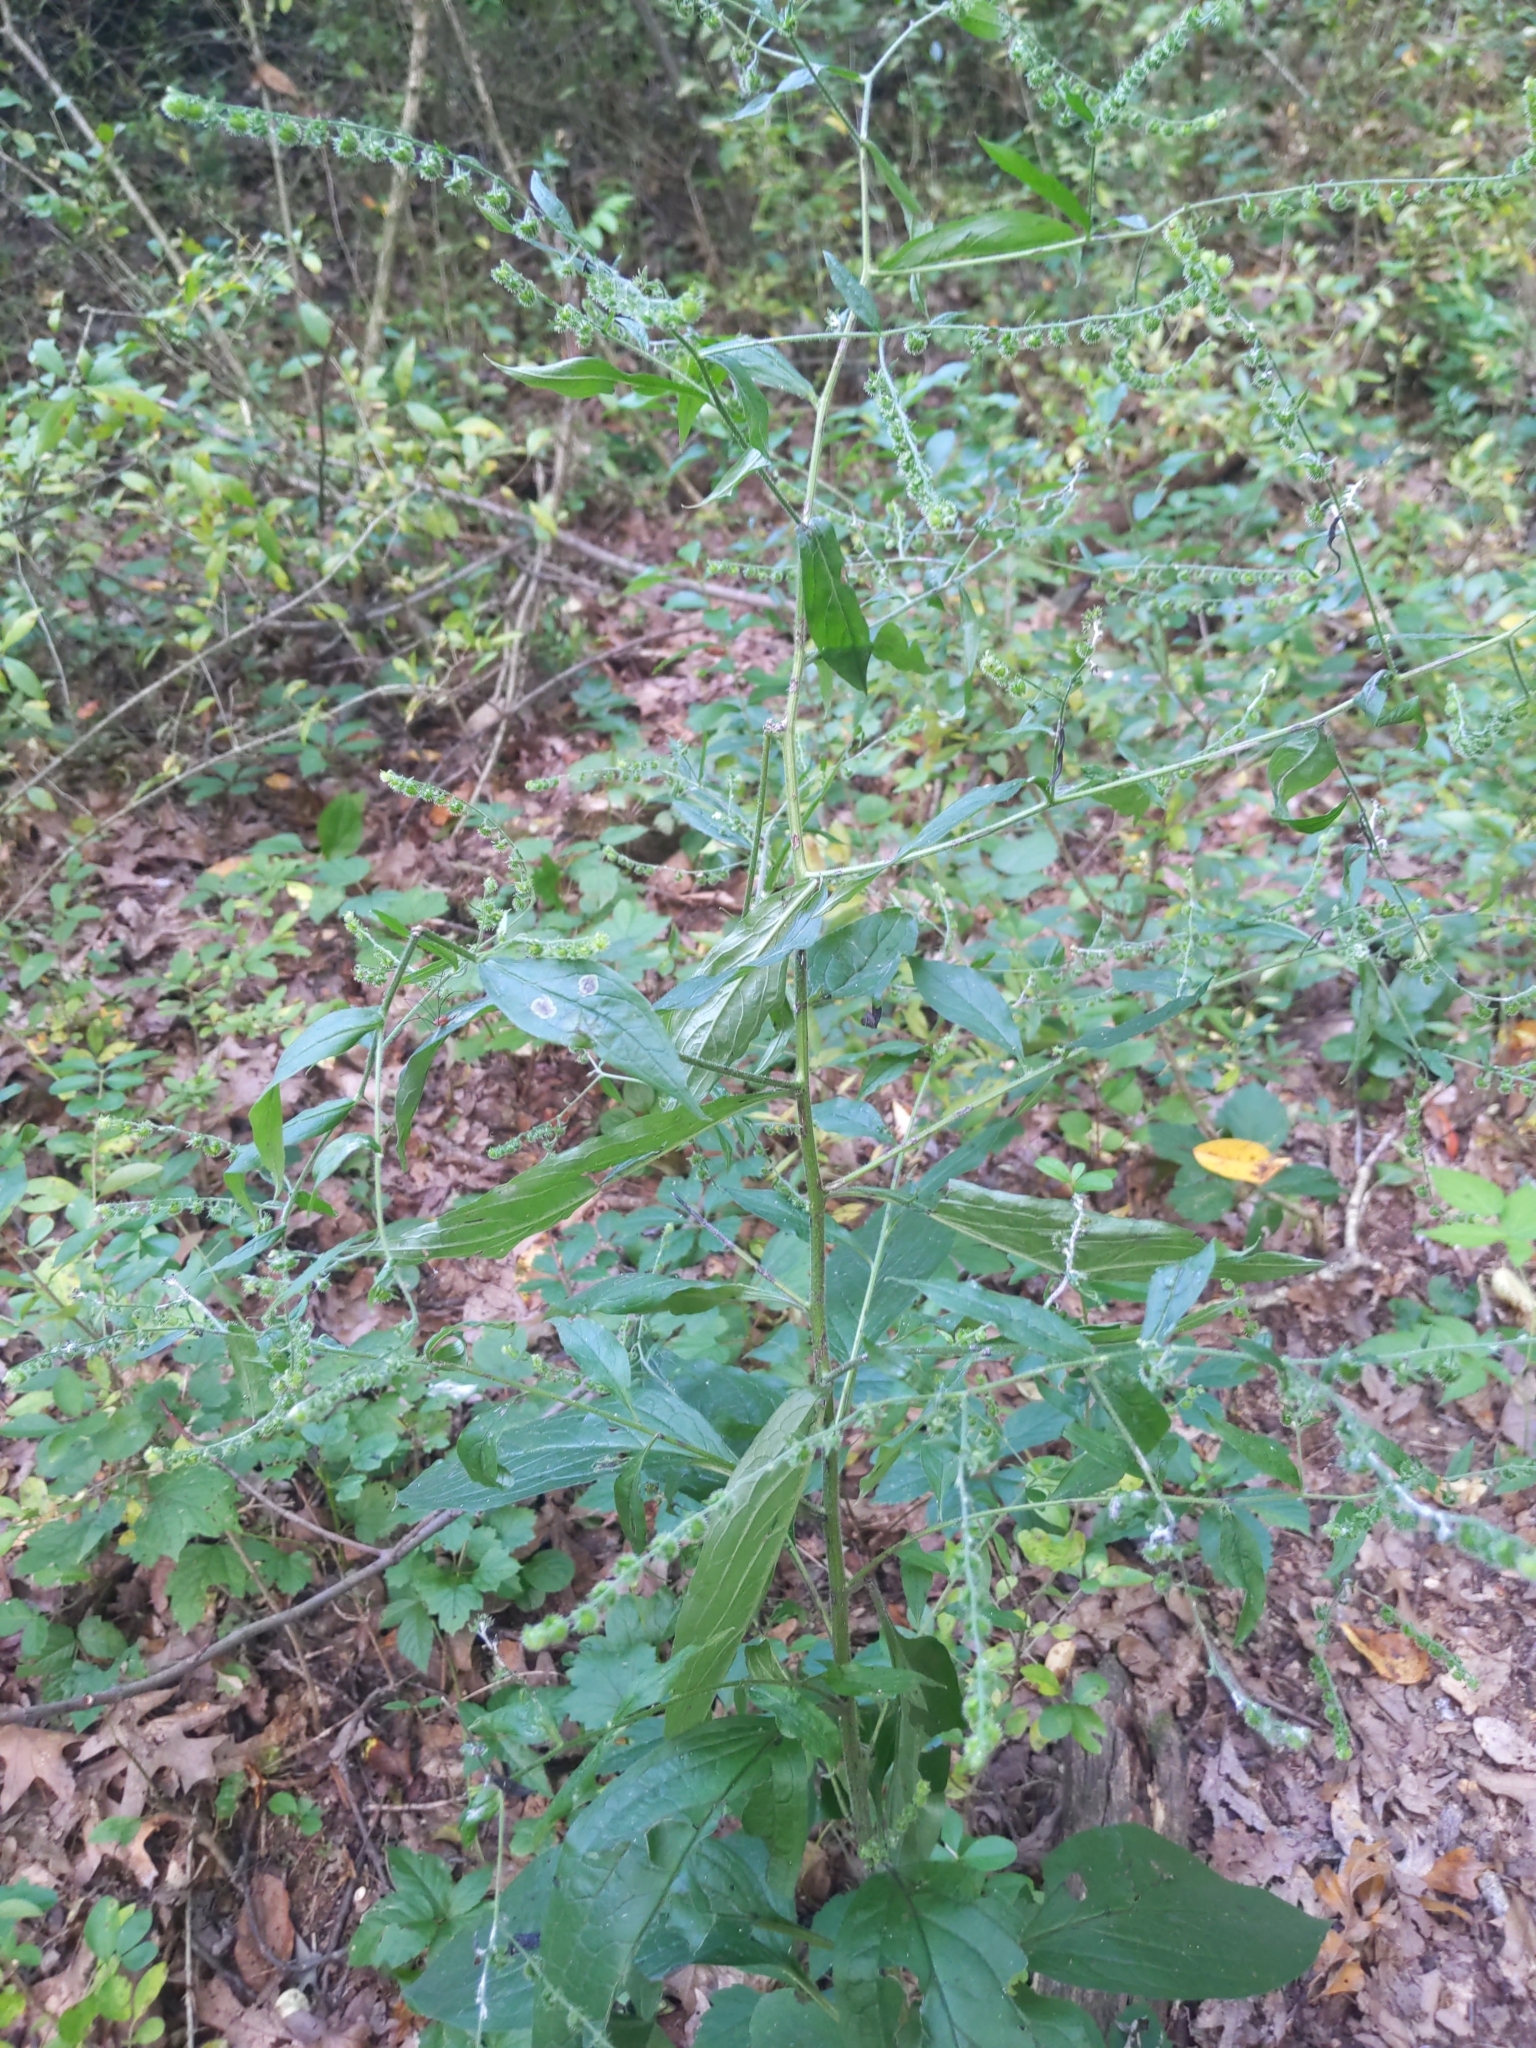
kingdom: Plantae
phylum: Tracheophyta
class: Magnoliopsida
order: Boraginales
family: Boraginaceae
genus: Hackelia
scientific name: Hackelia virginiana
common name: Beggar's-lice
